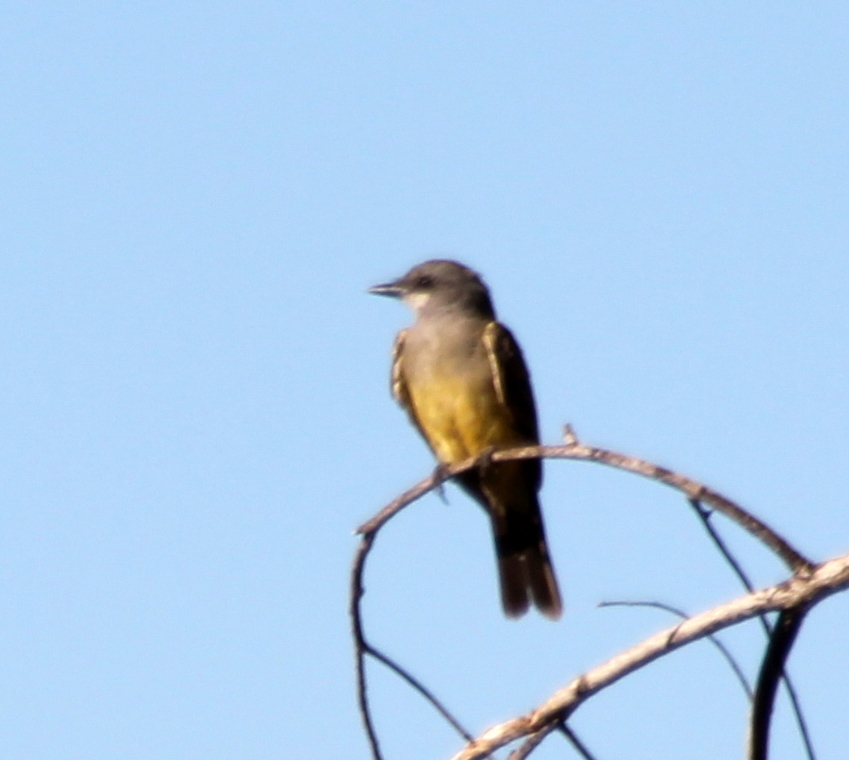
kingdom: Animalia
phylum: Chordata
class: Aves
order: Passeriformes
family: Tyrannidae
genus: Tyrannus
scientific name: Tyrannus vociferans
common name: Cassin's kingbird
